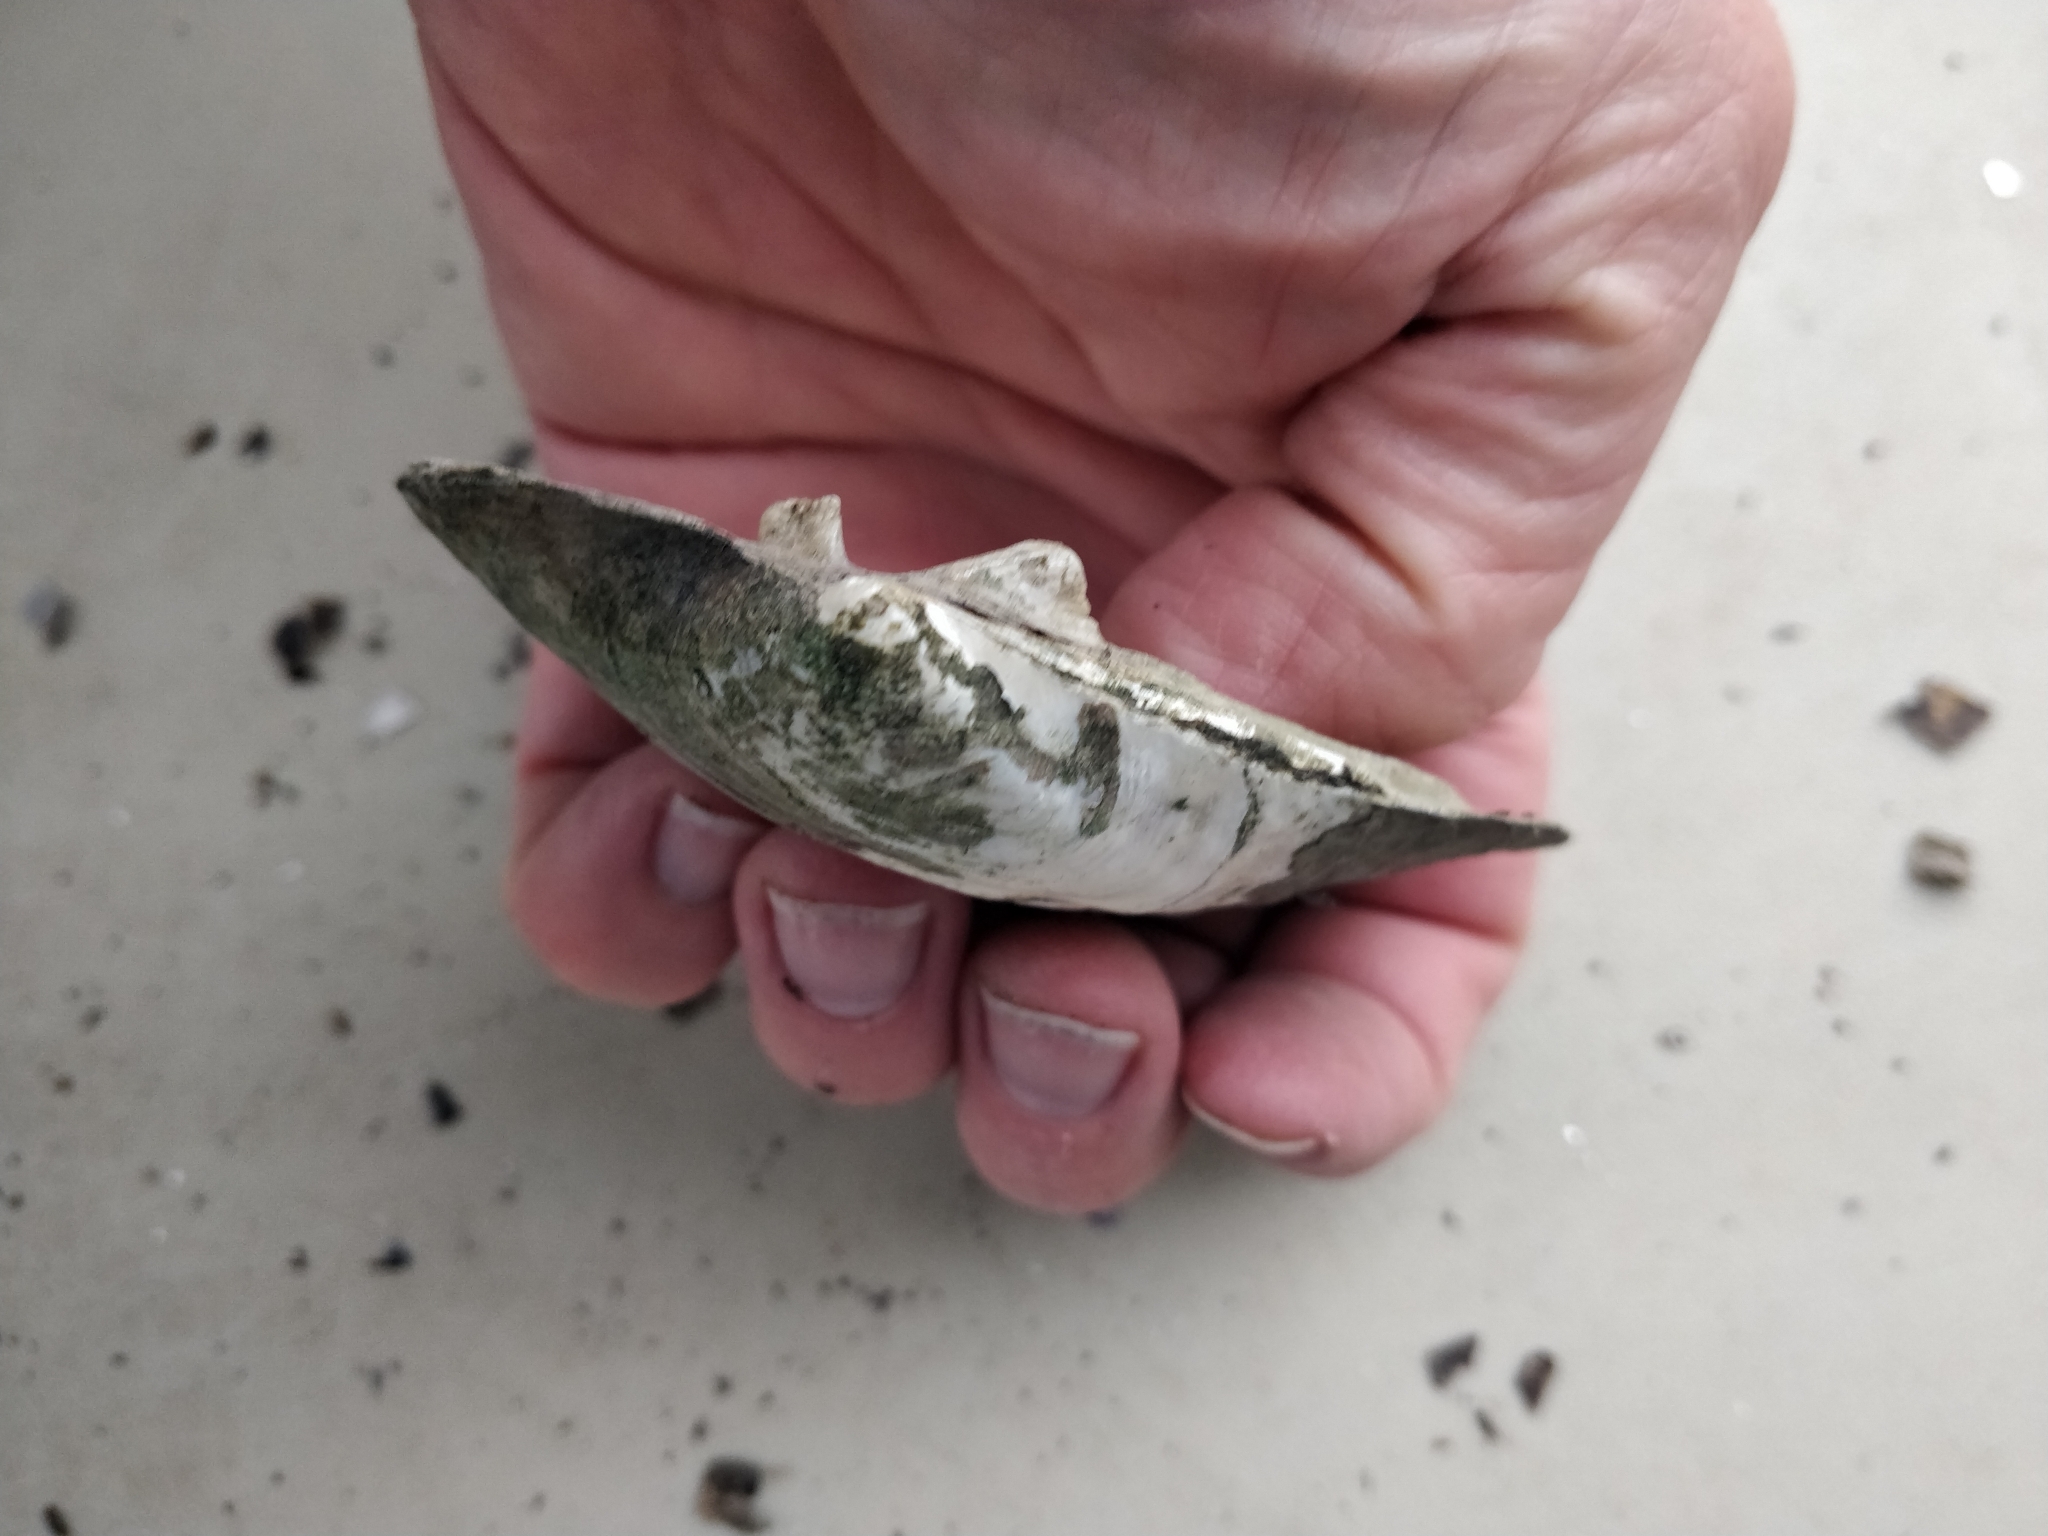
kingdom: Animalia
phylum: Mollusca
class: Bivalvia
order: Unionida
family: Unionidae
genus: Amblema
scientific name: Amblema plicata
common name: Threeridge
